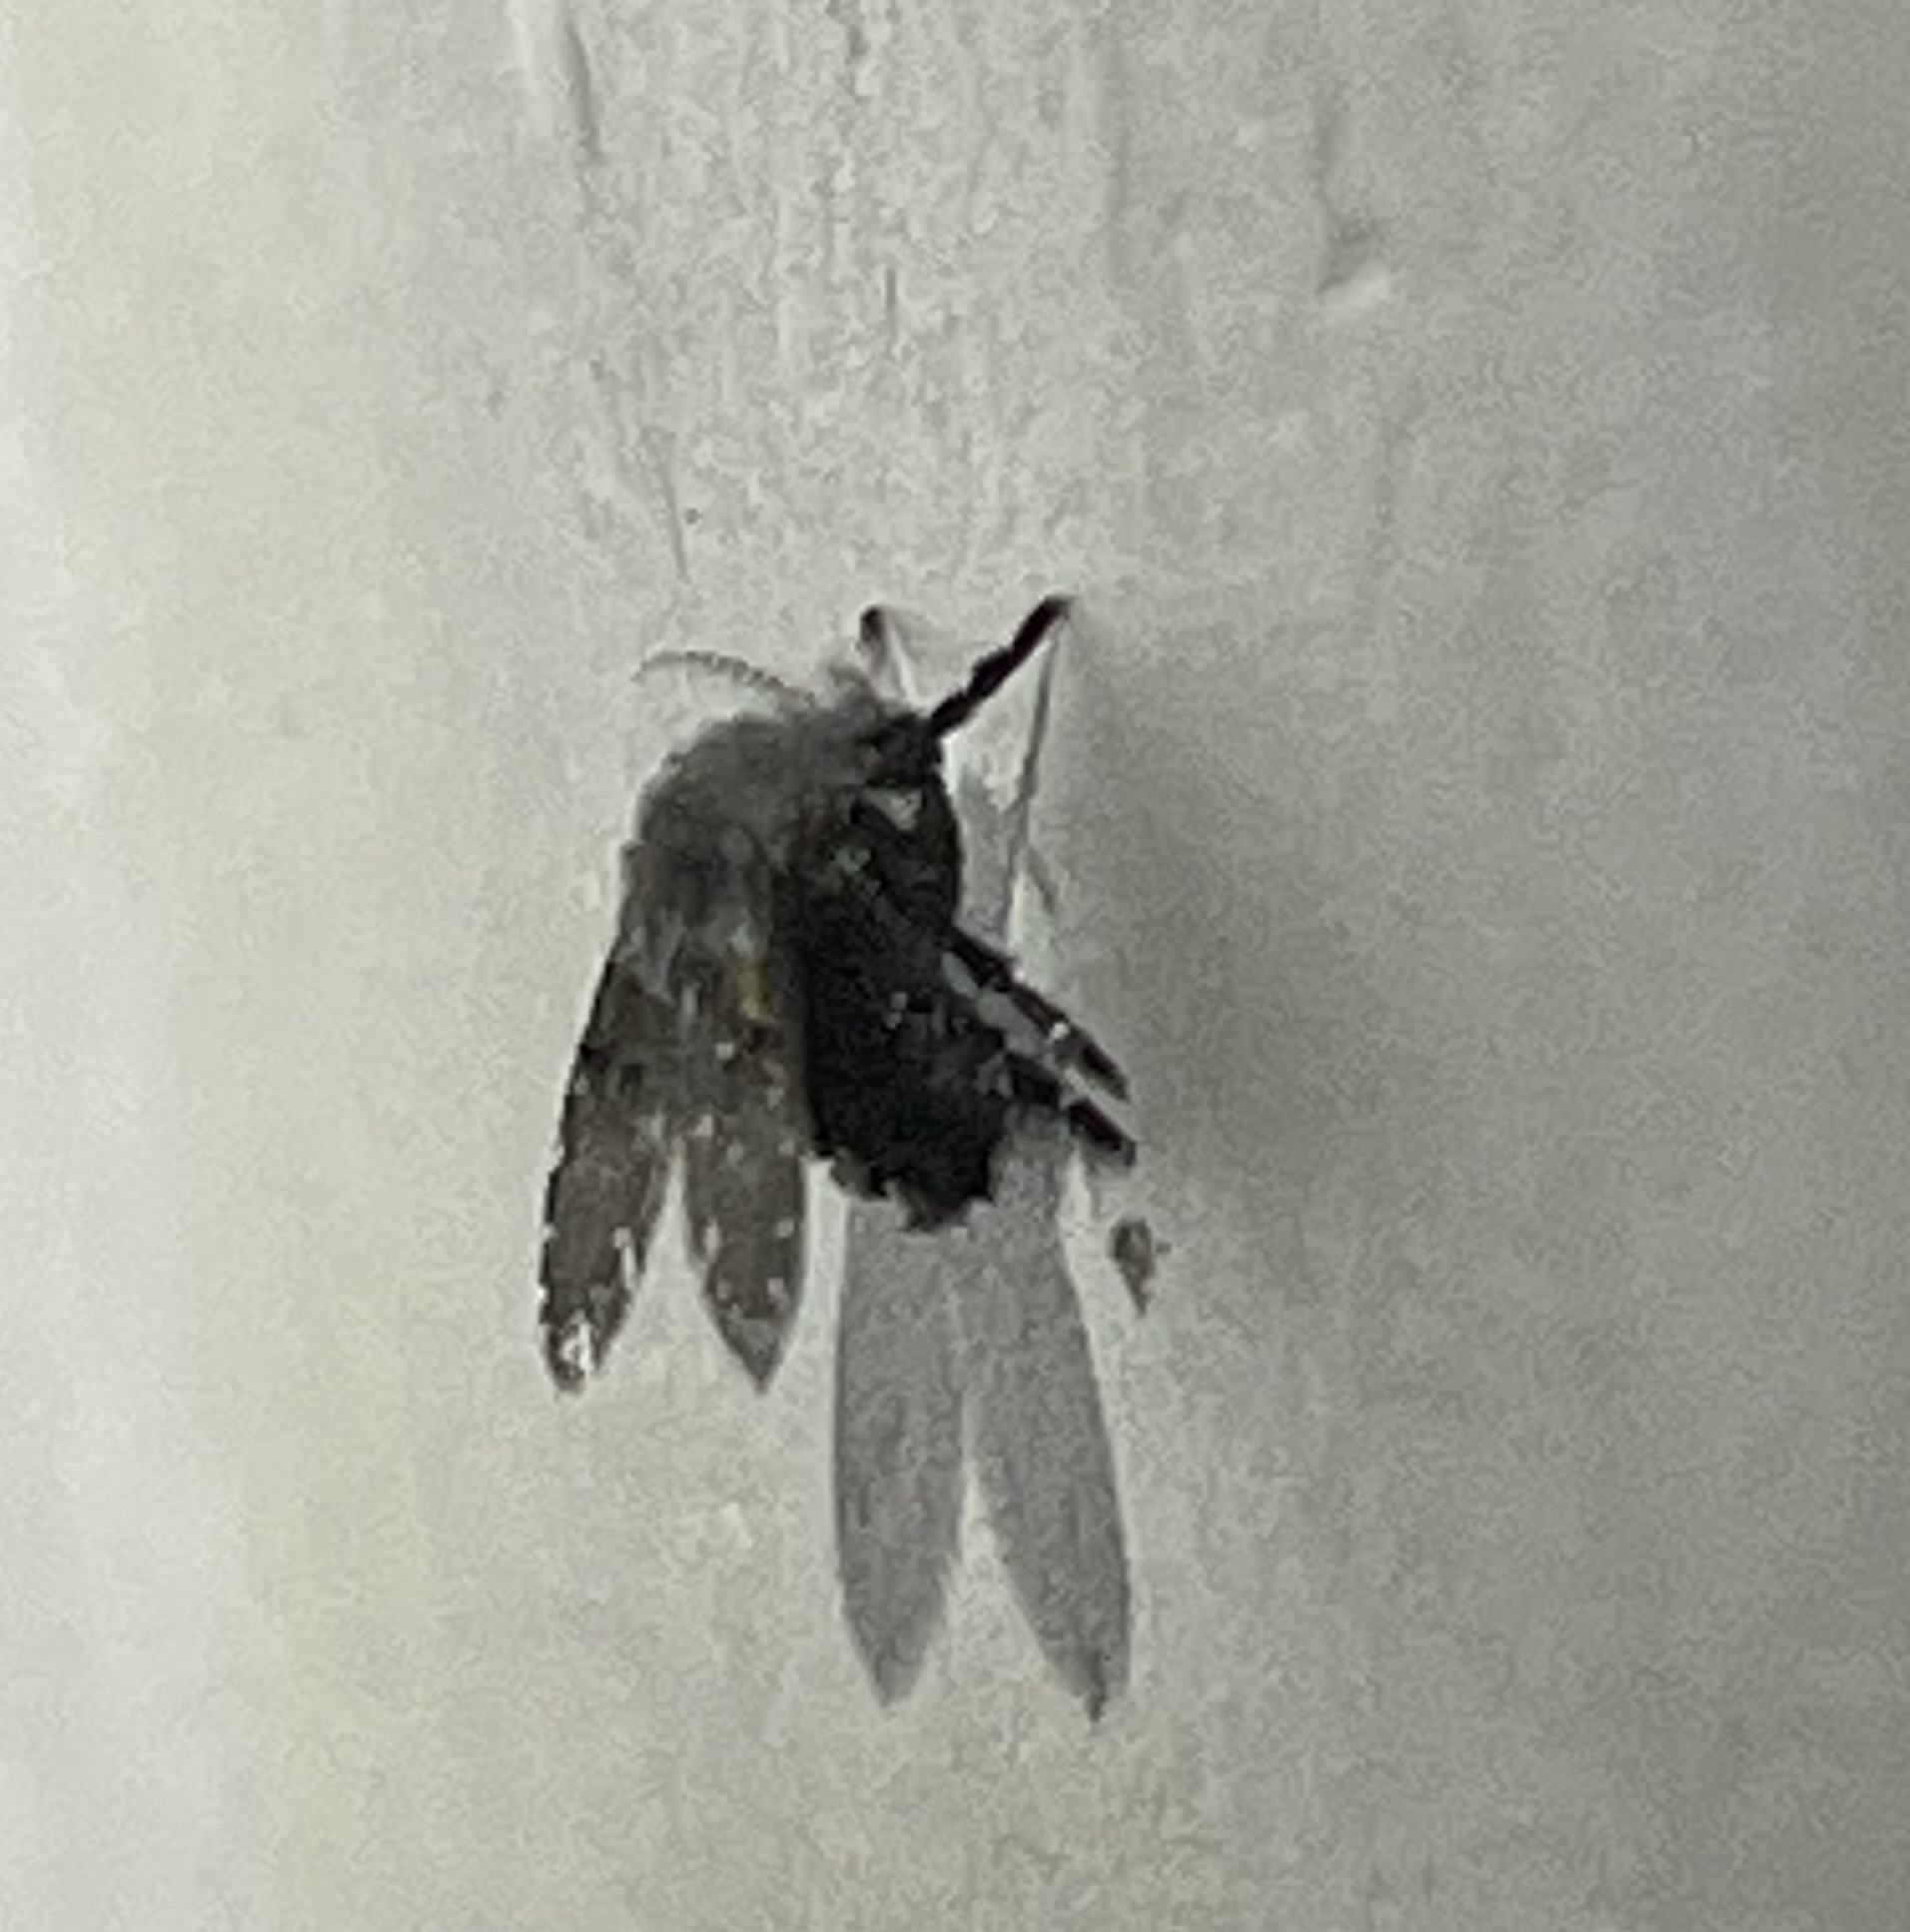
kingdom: Animalia
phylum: Arthropoda
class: Insecta
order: Diptera
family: Psychodidae
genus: Clogmia
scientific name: Clogmia albipunctatus
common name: White-spotted moth fly
